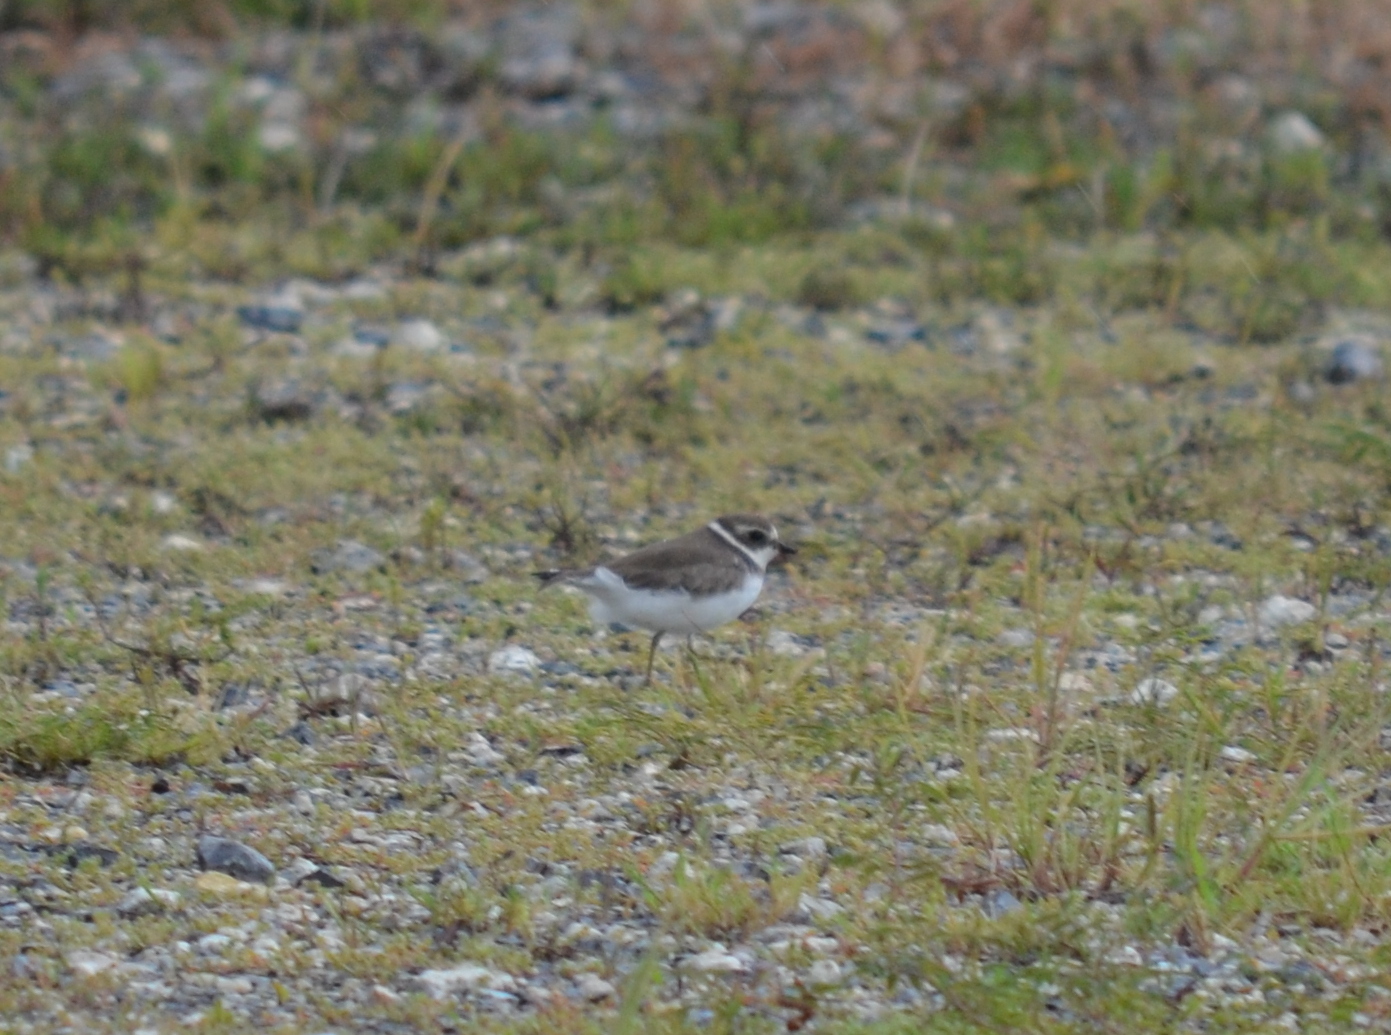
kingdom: Animalia
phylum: Chordata
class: Aves
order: Charadriiformes
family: Charadriidae
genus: Charadrius
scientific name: Charadrius semipalmatus
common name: Semipalmated plover
